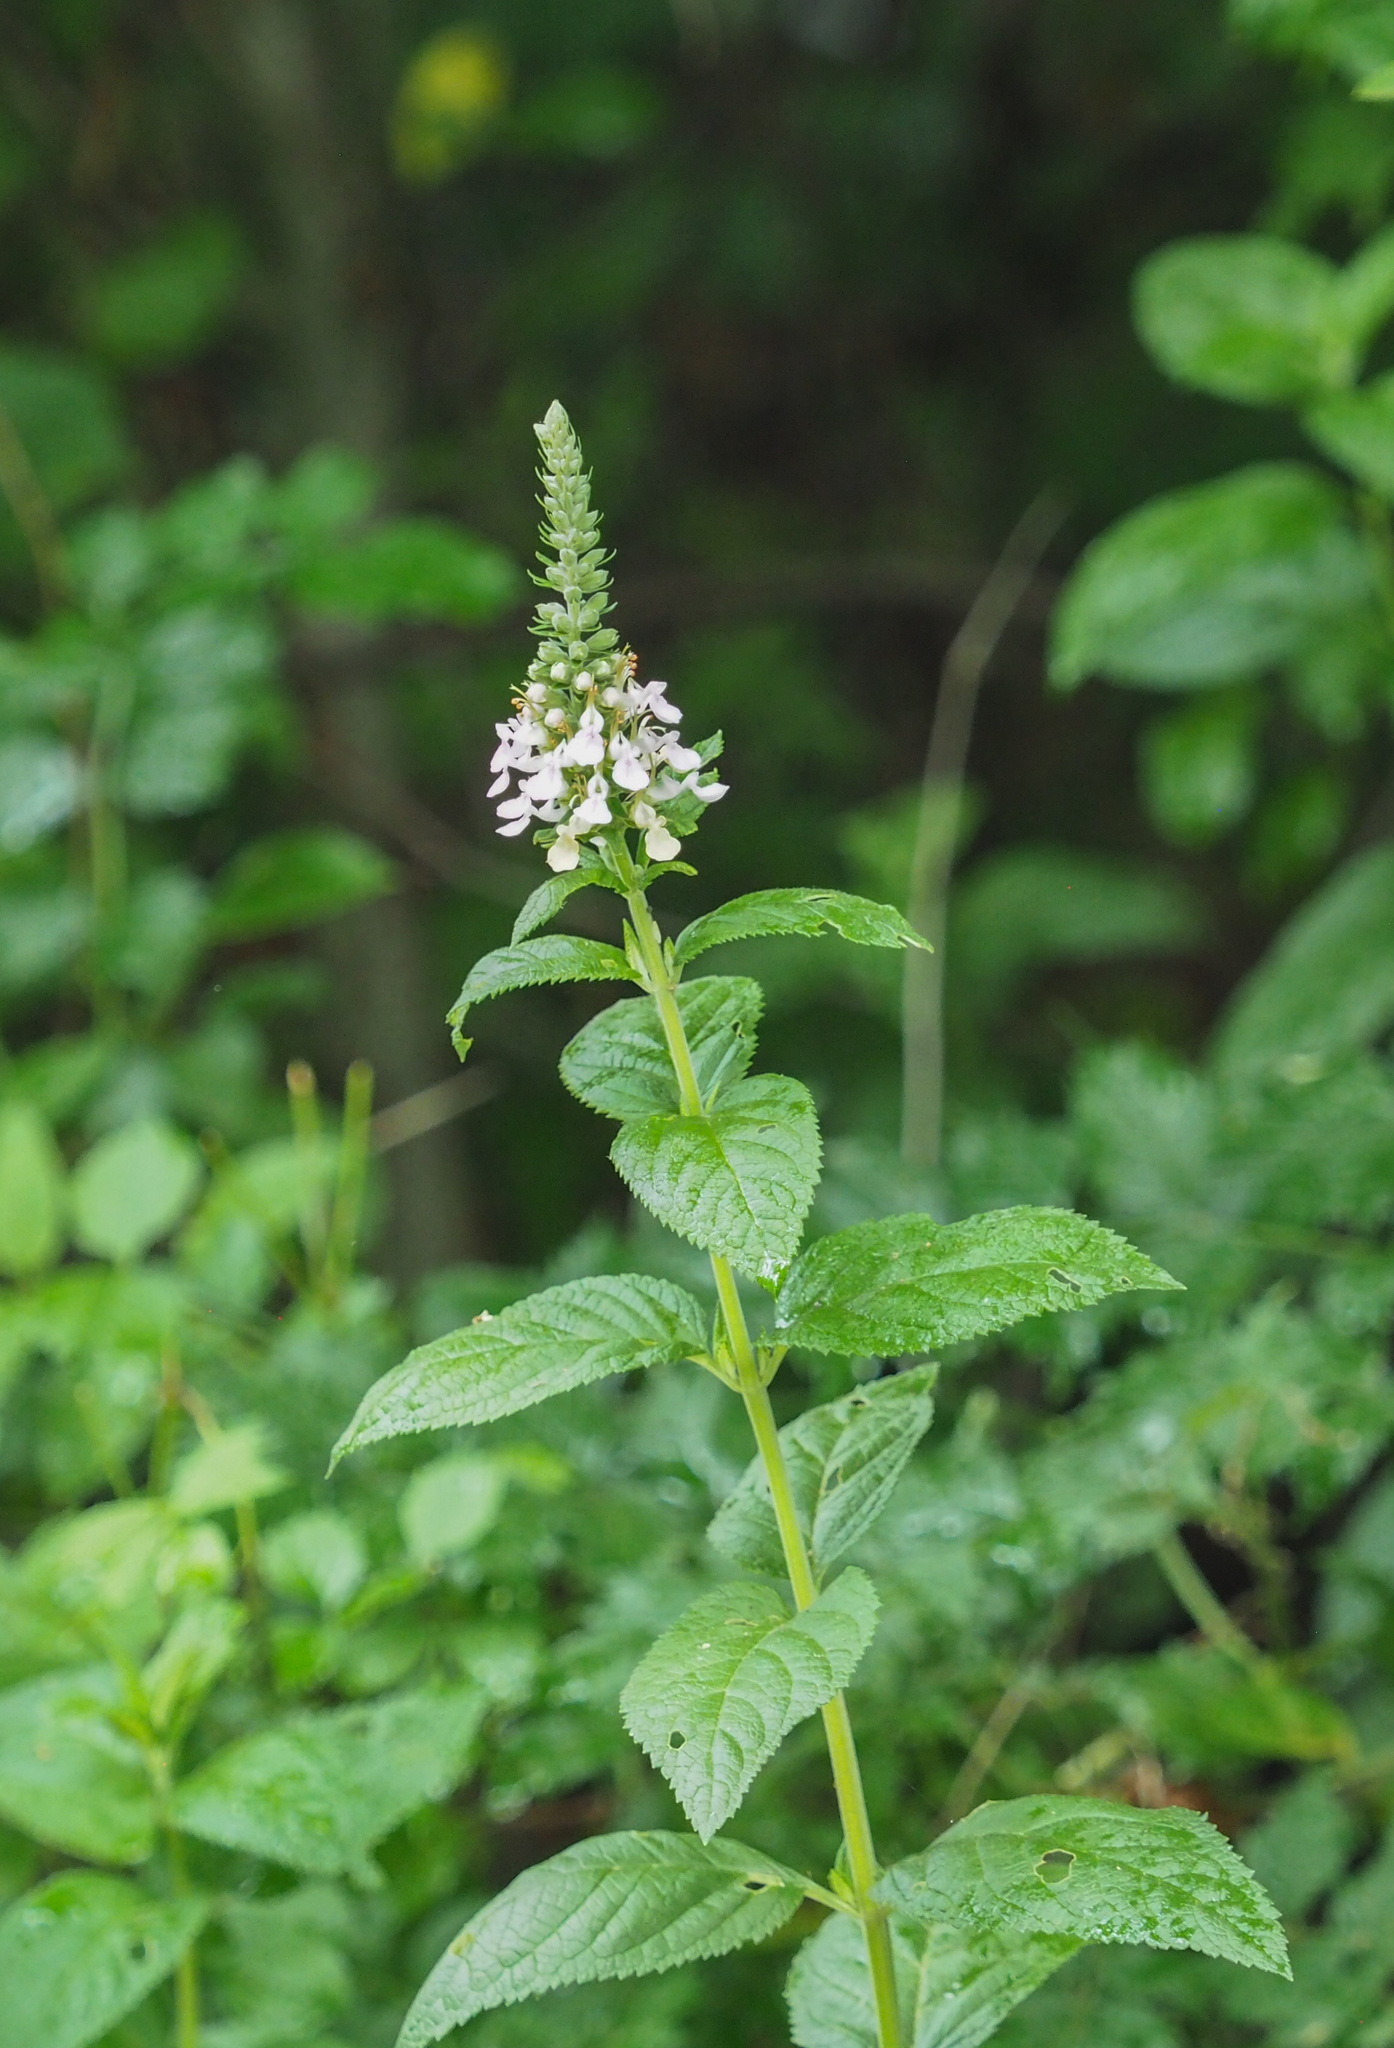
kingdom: Plantae
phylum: Tracheophyta
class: Magnoliopsida
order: Lamiales
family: Lamiaceae
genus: Teucrium
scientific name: Teucrium canadense
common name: American germander
